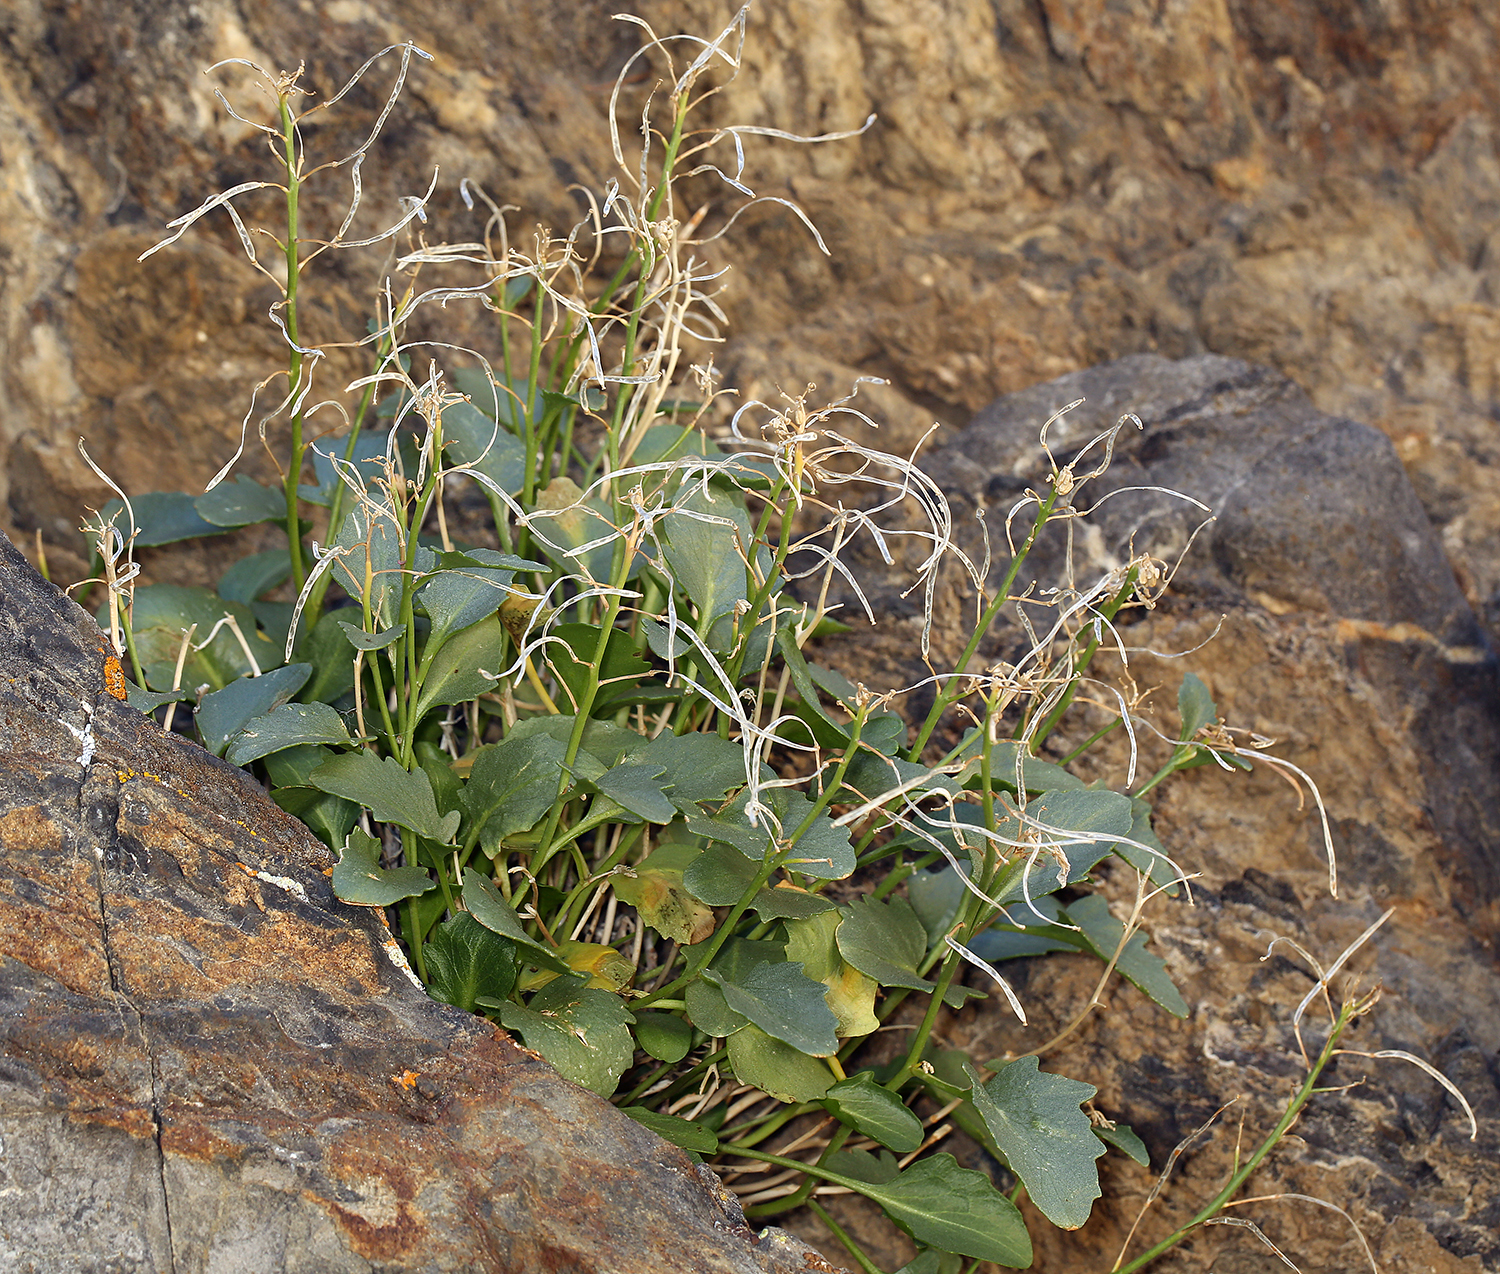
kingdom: Plantae
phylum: Tracheophyta
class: Magnoliopsida
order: Brassicales
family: Brassicaceae
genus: Hesperidanthus
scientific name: Hesperidanthus jaegeri
